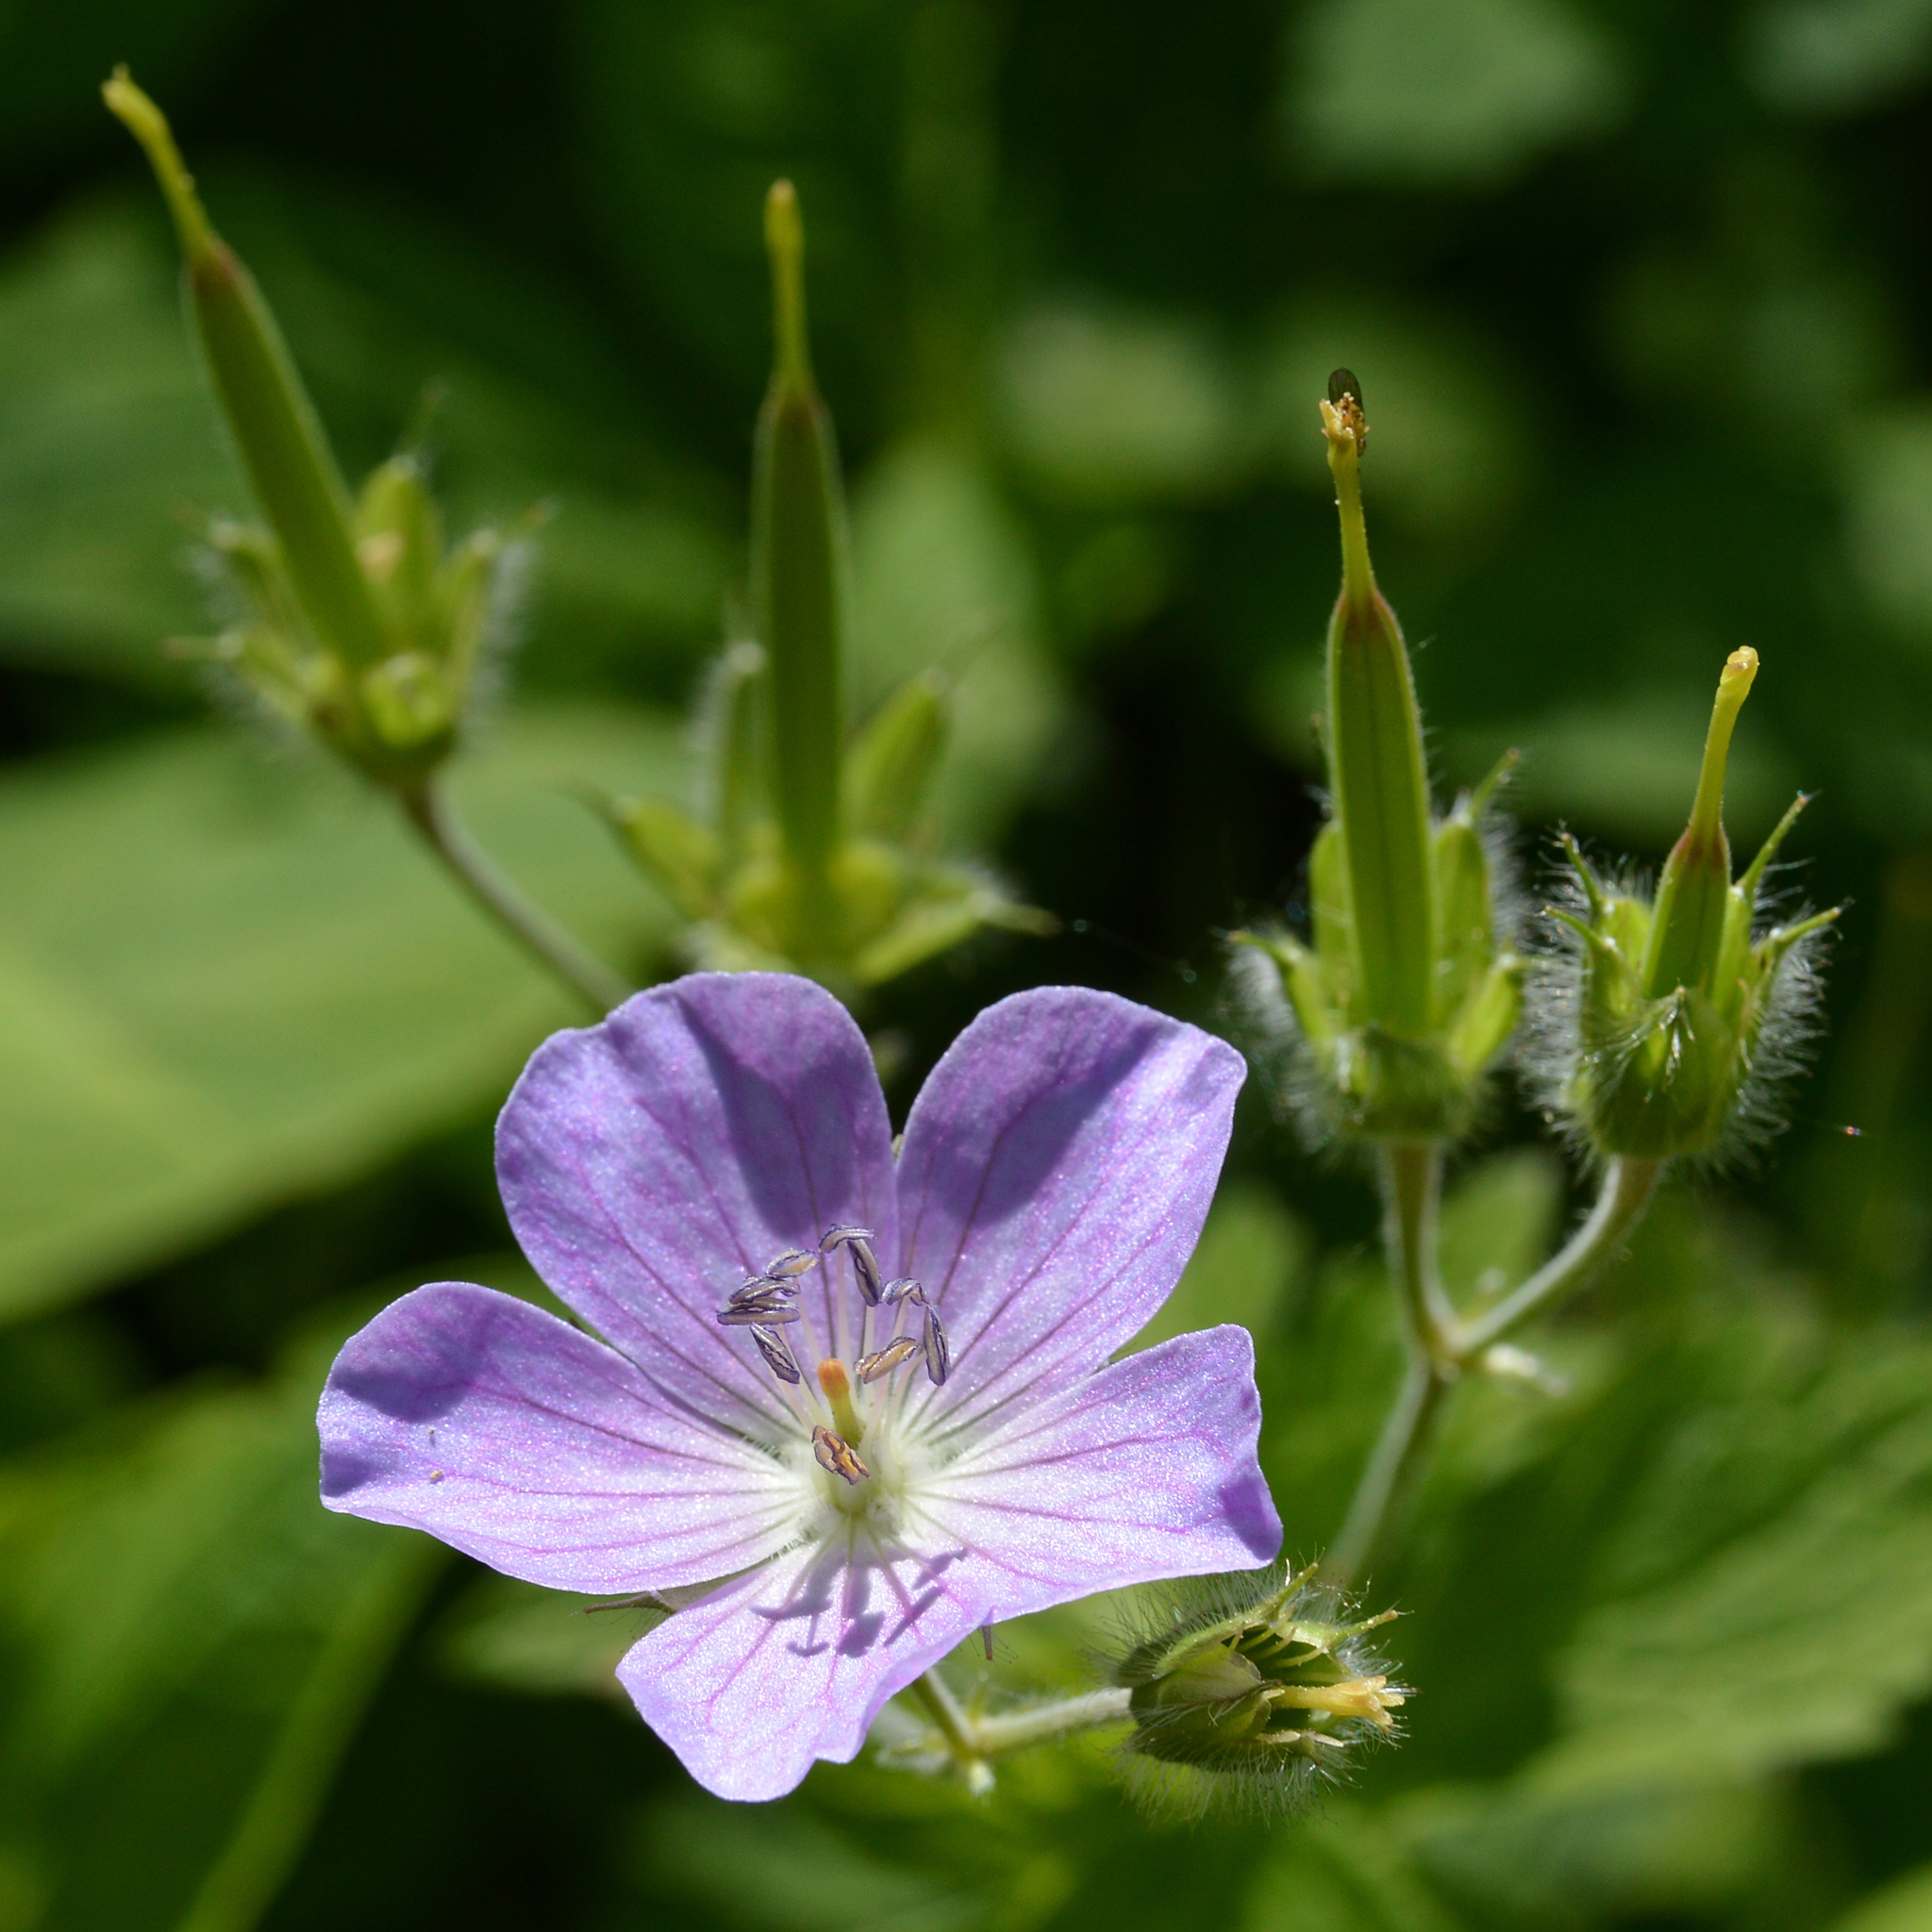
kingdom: Plantae
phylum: Tracheophyta
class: Magnoliopsida
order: Geraniales
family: Geraniaceae
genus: Geranium
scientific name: Geranium maculatum
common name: Spotted geranium
